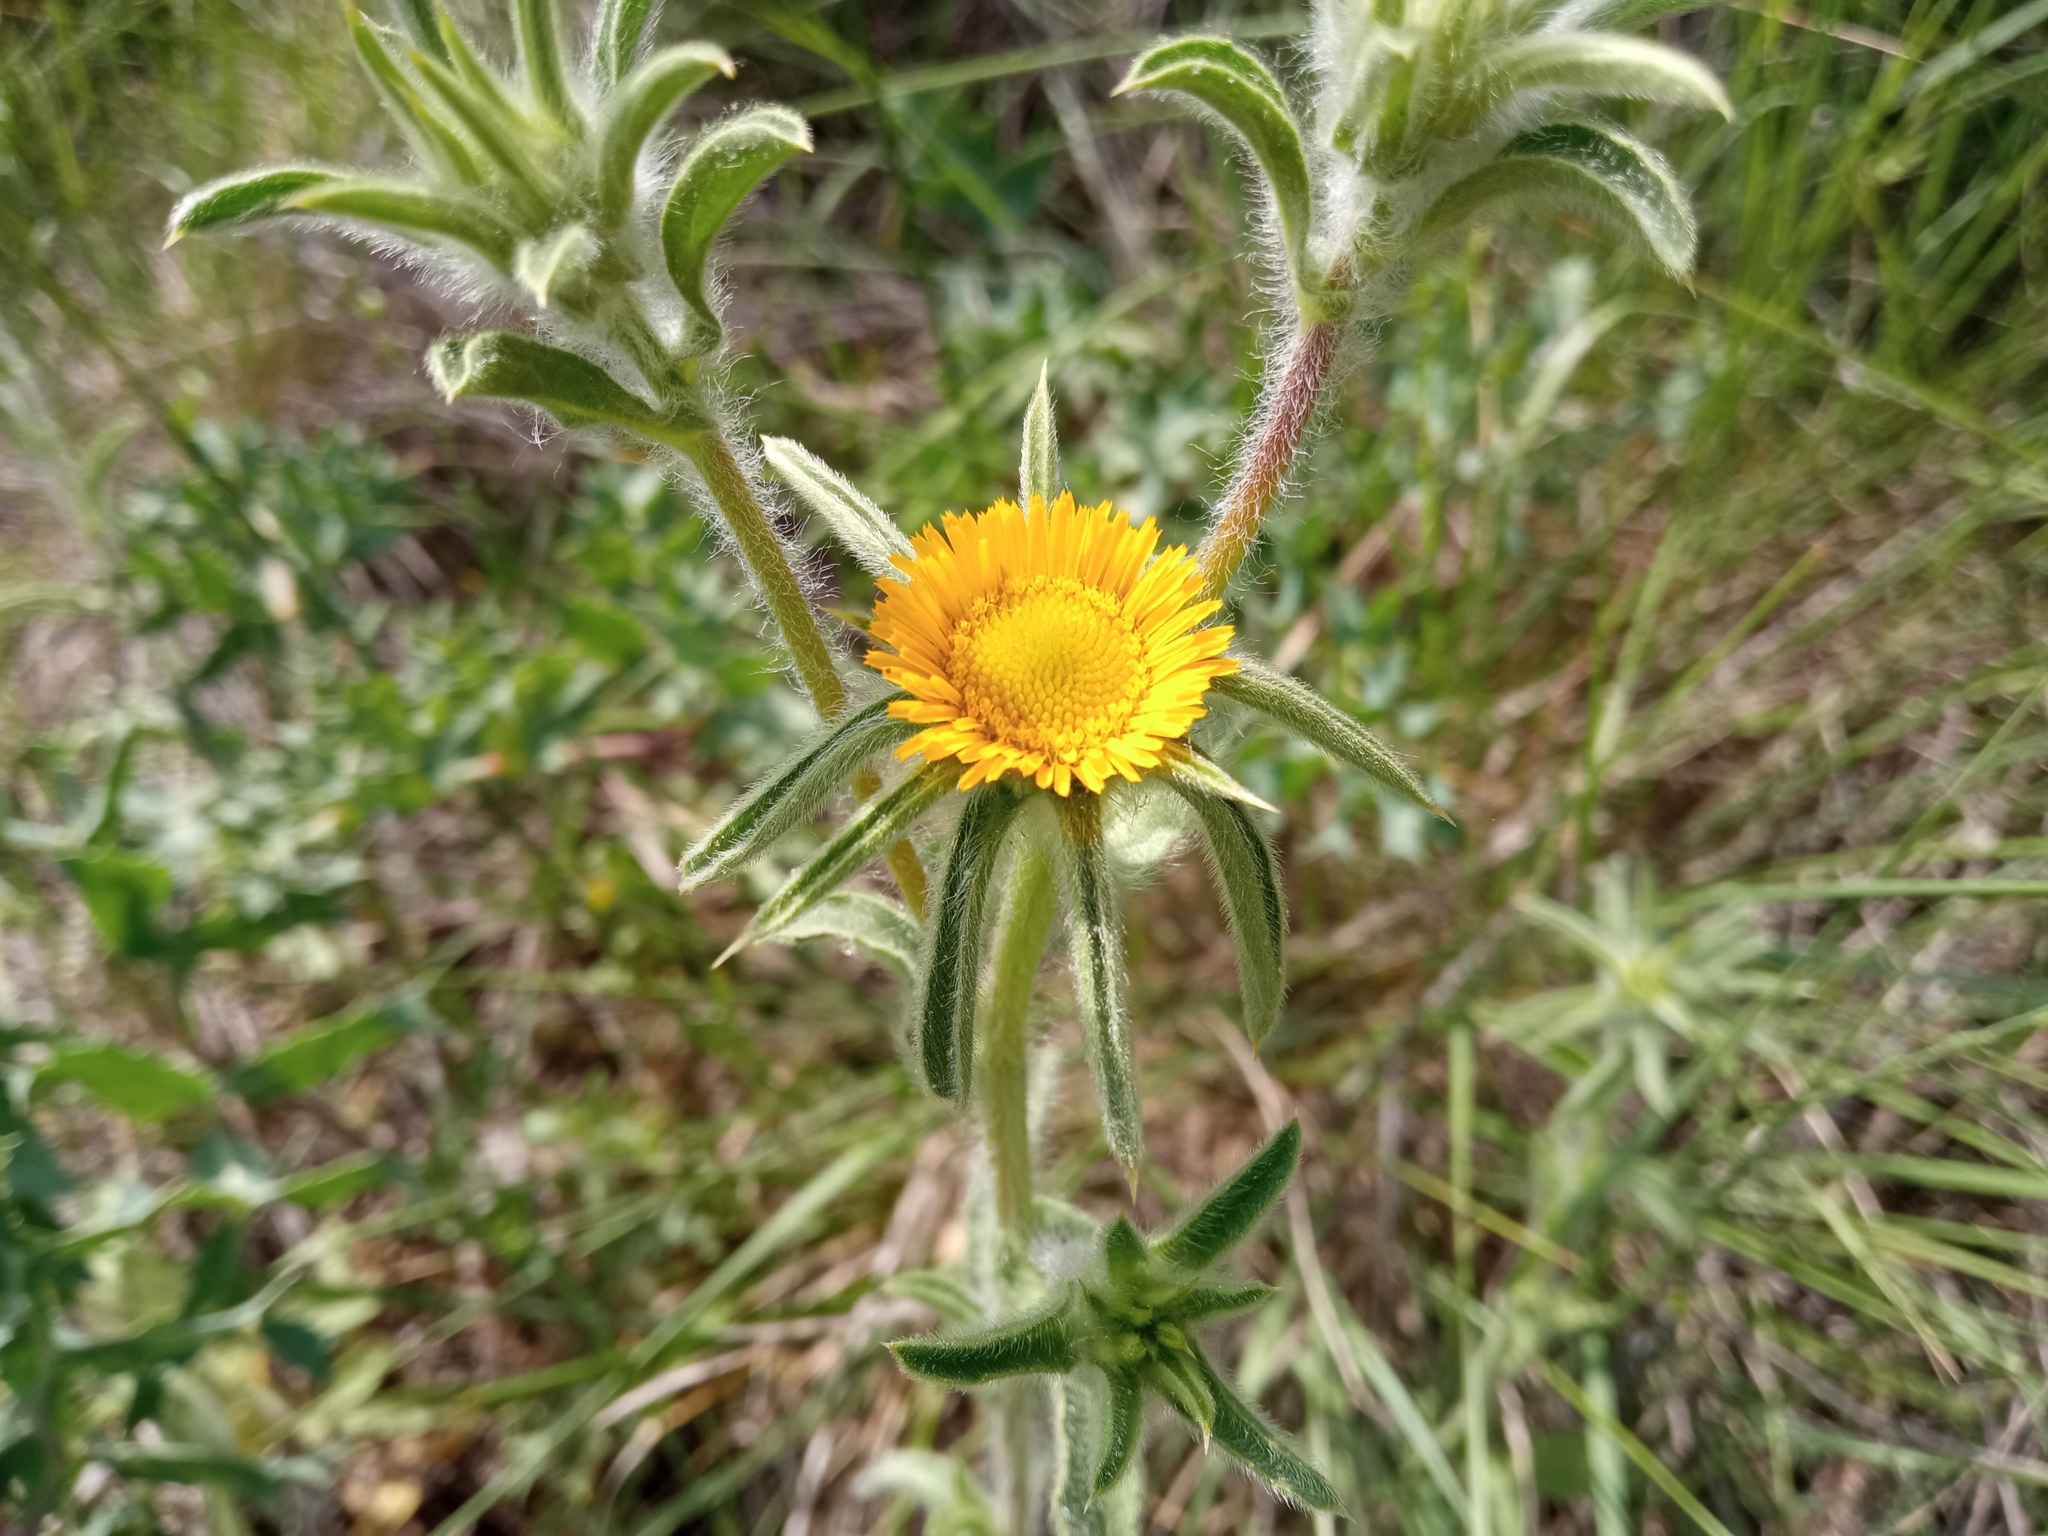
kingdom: Plantae
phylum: Tracheophyta
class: Magnoliopsida
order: Asterales
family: Asteraceae
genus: Pallenis
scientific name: Pallenis spinosa
